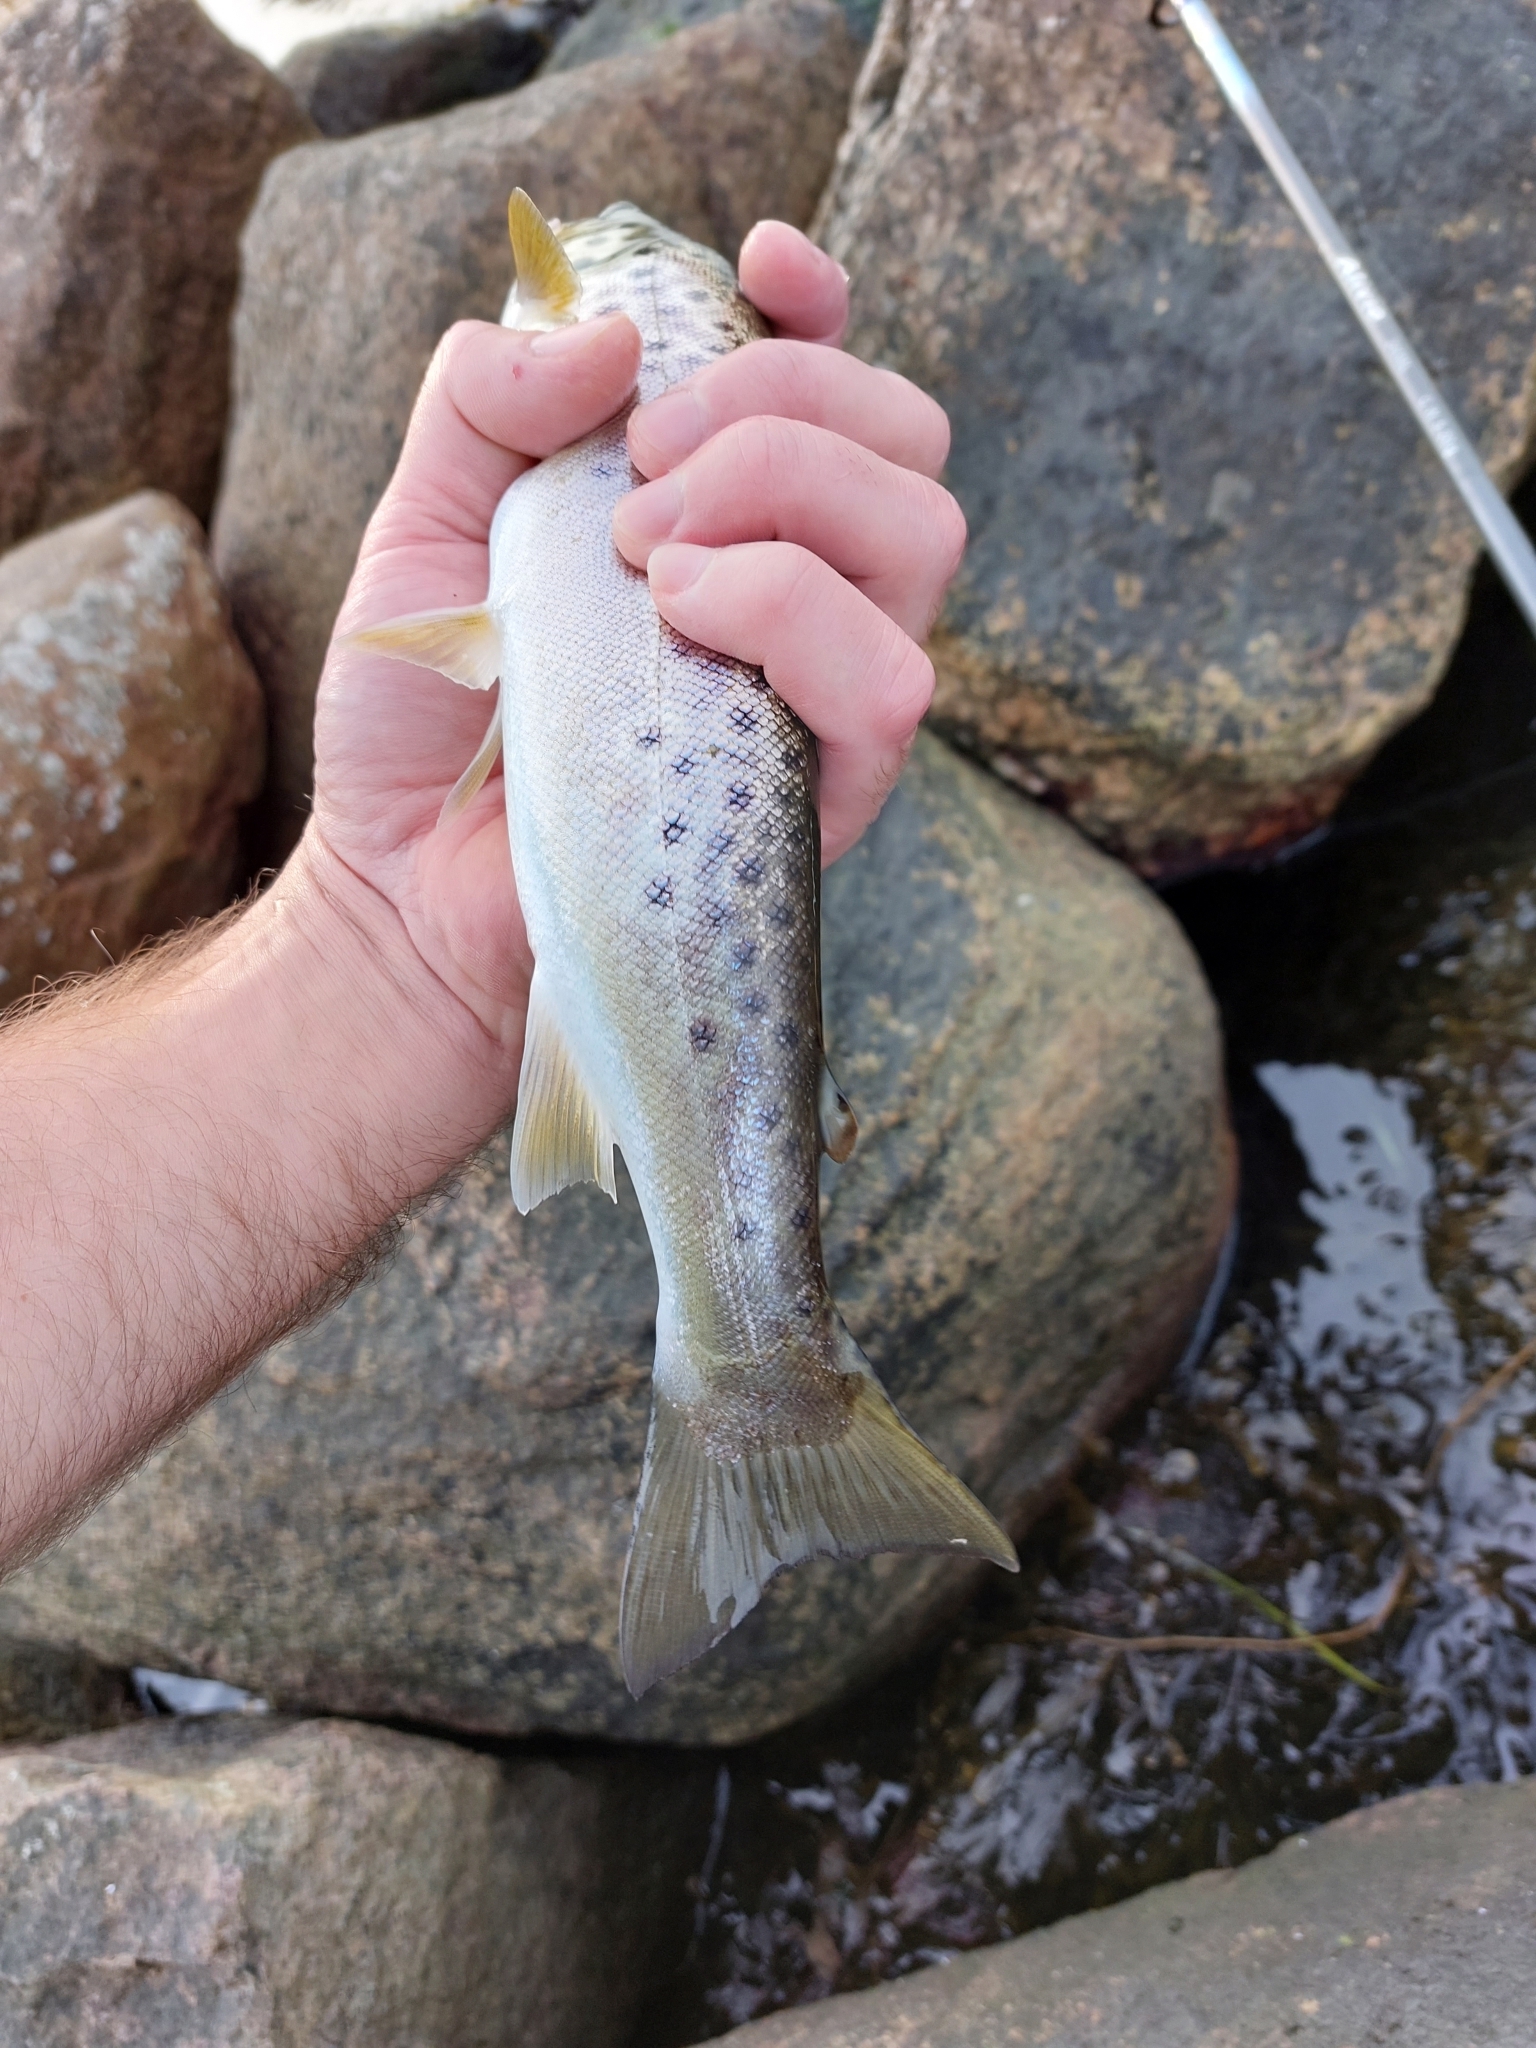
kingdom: Animalia
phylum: Chordata
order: Salmoniformes
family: Salmonidae
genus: Salmo
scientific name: Salmo trutta
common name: Brown trout
